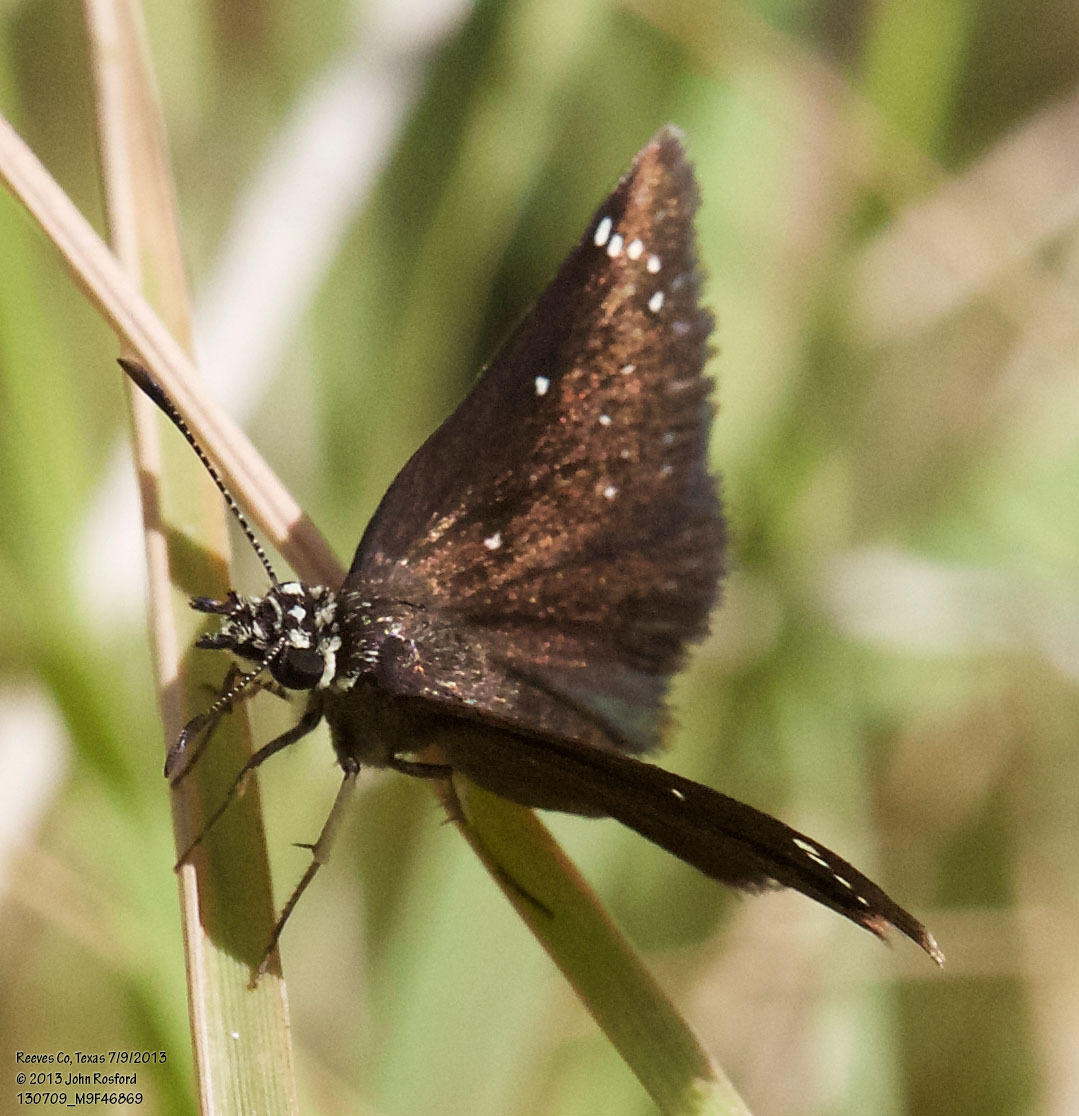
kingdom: Animalia
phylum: Arthropoda
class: Insecta
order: Lepidoptera
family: Hesperiidae
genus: Pholisora
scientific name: Pholisora catullus
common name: Common sootywing
